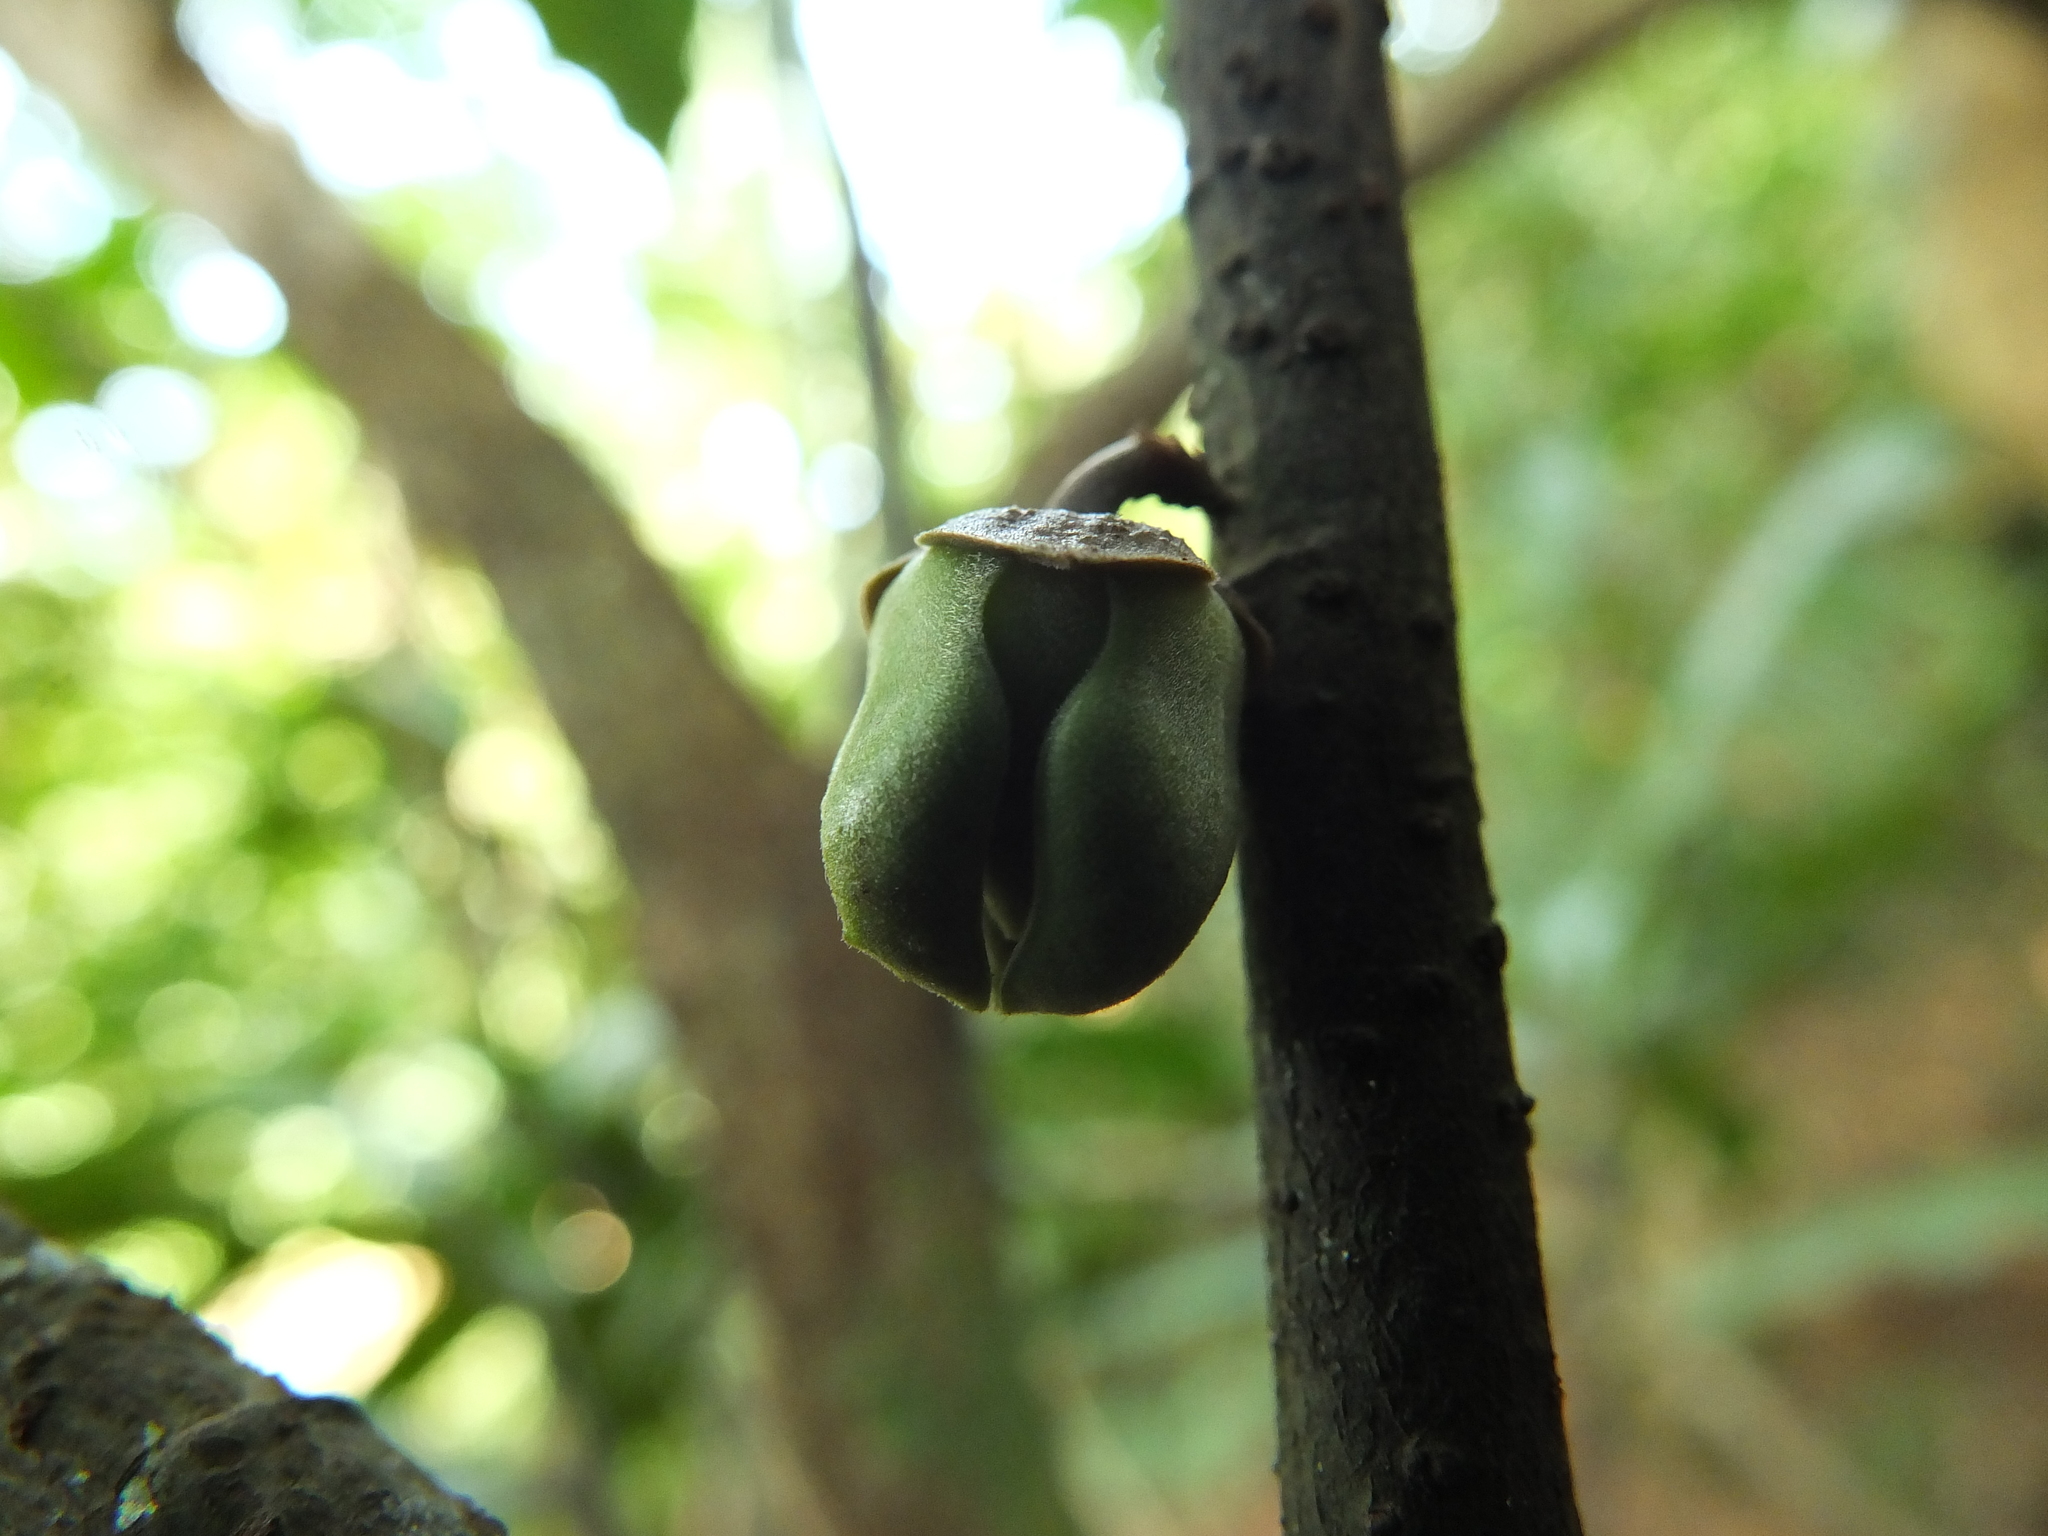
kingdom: Plantae
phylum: Tracheophyta
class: Magnoliopsida
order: Magnoliales
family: Annonaceae
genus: Goniothalamus
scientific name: Goniothalamus cardiopetalus
